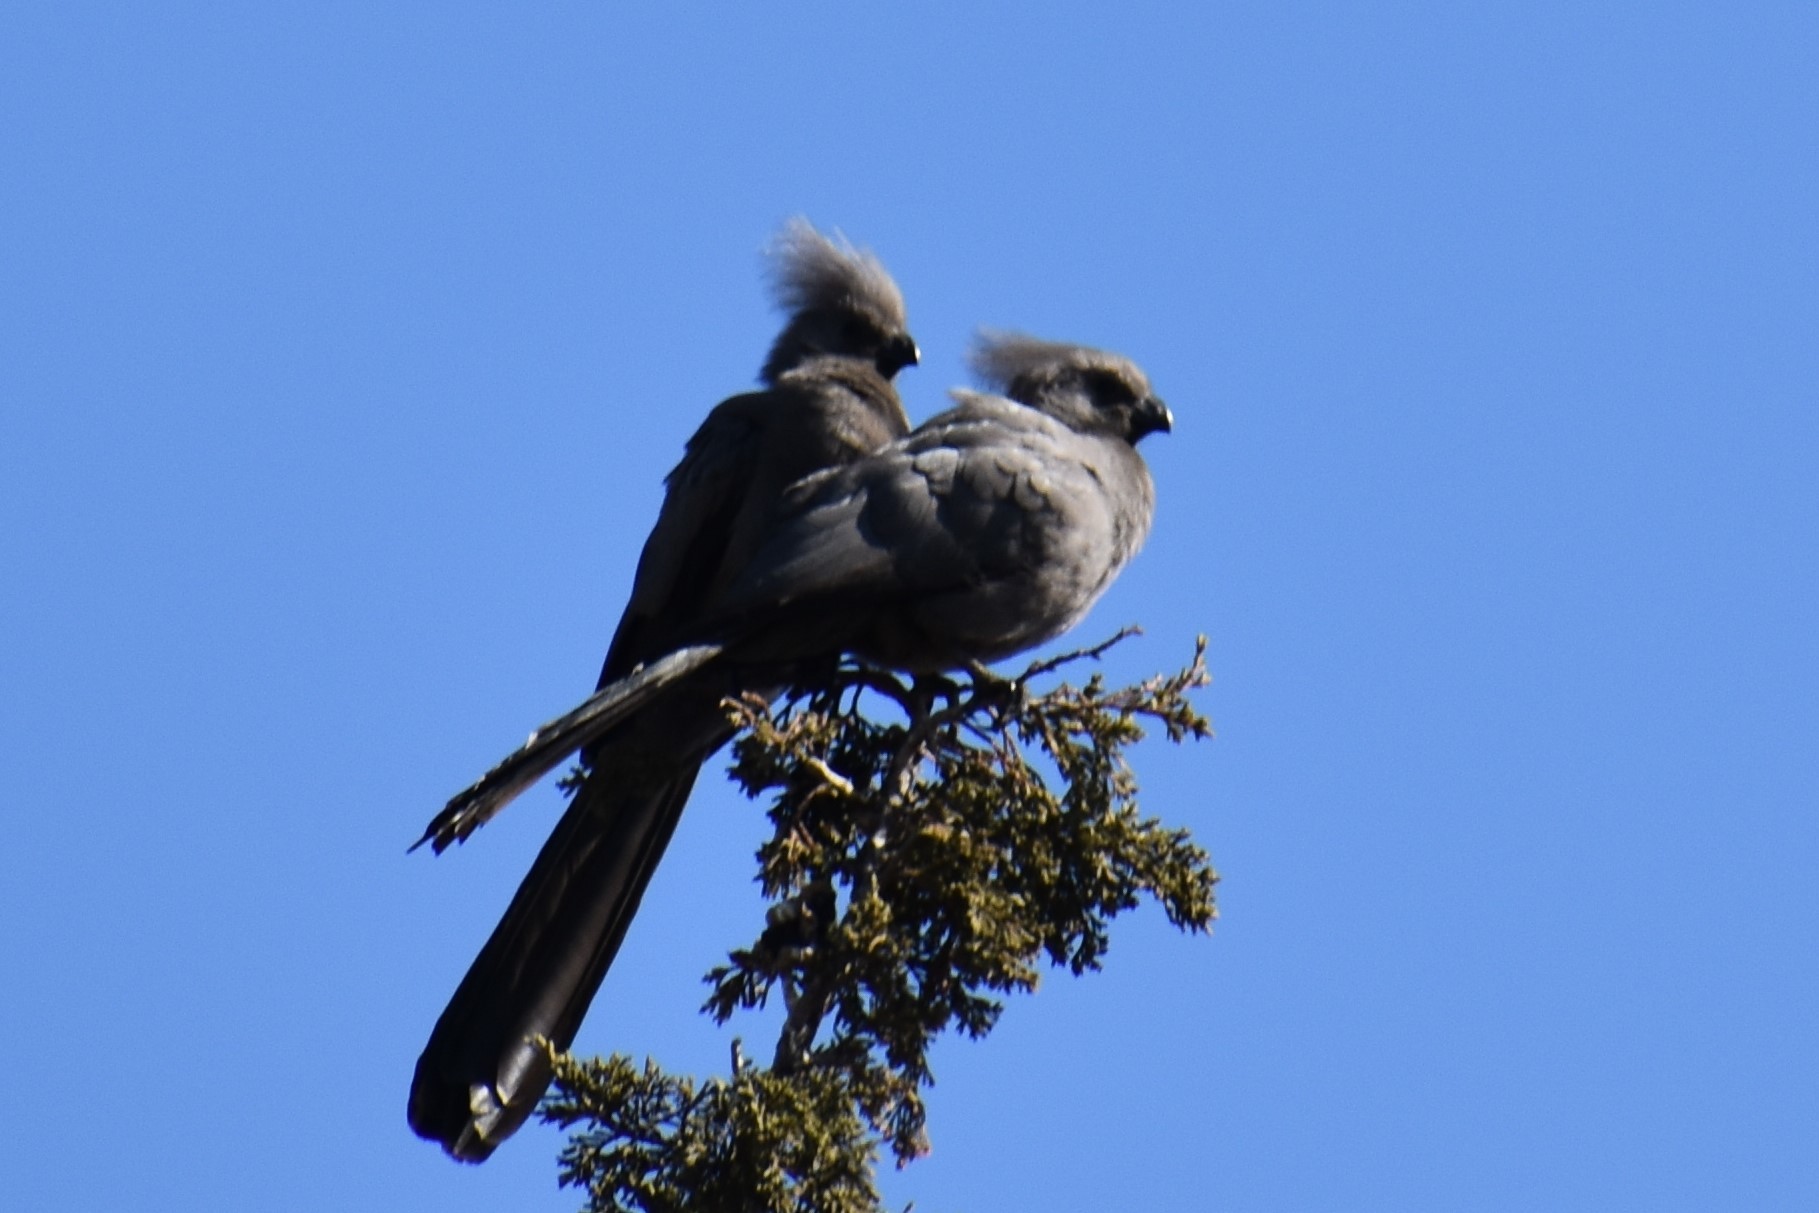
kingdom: Animalia
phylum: Chordata
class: Aves
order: Musophagiformes
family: Musophagidae
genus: Corythaixoides
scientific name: Corythaixoides concolor
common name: Grey go-away-bird
